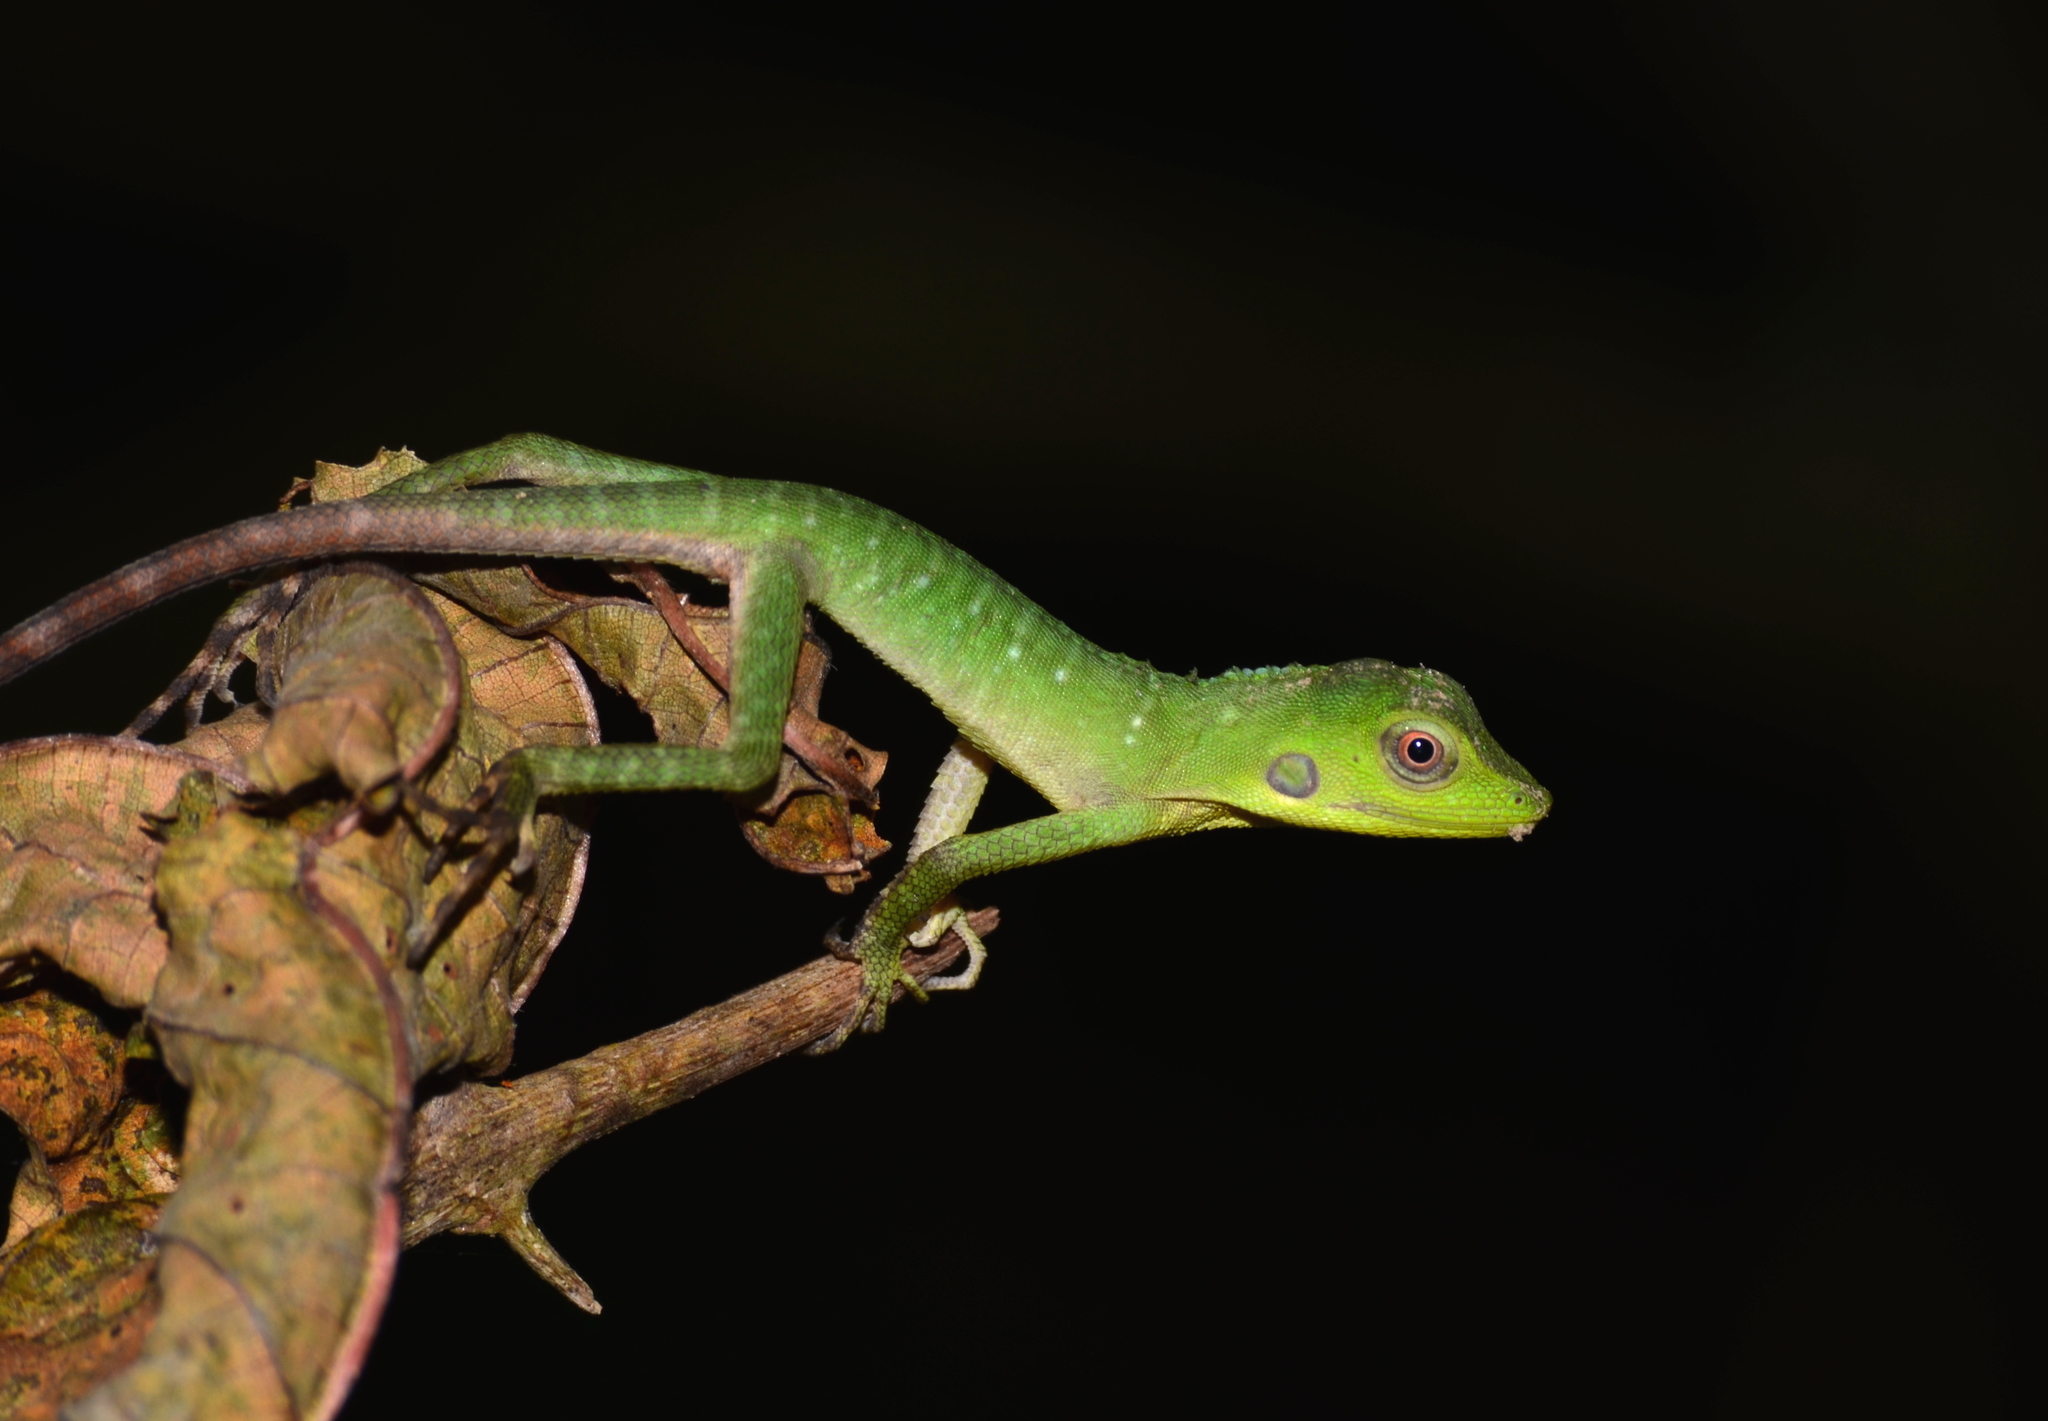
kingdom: Animalia
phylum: Chordata
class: Squamata
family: Agamidae
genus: Bronchocela
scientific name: Bronchocela cristatella
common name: Green crested lizard
